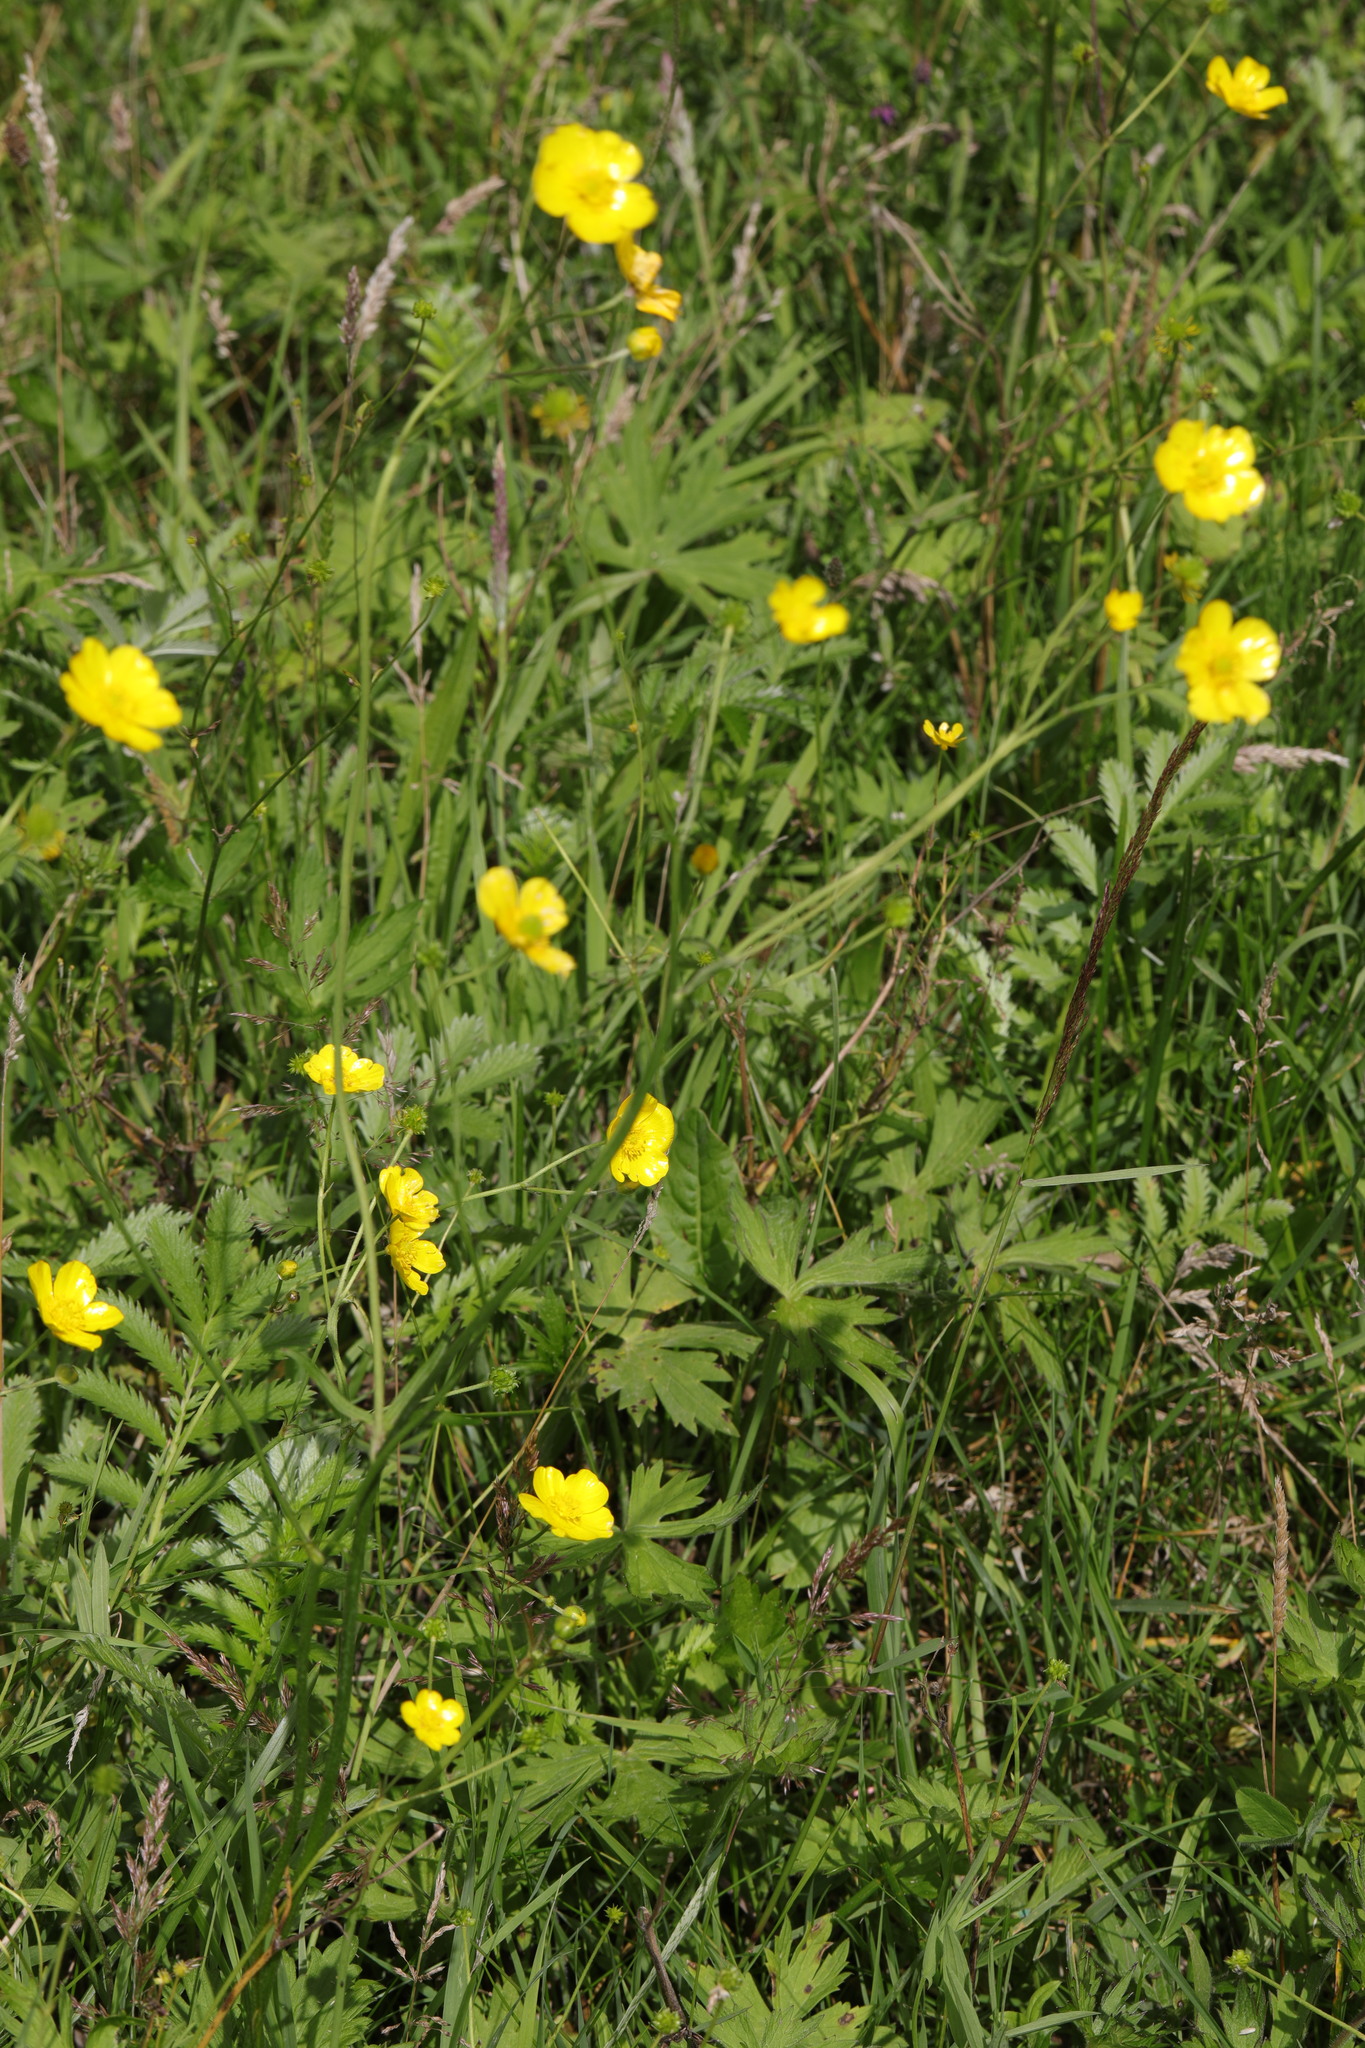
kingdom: Plantae
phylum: Tracheophyta
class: Magnoliopsida
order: Ranunculales
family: Ranunculaceae
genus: Ranunculus
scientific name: Ranunculus acris
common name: Meadow buttercup
